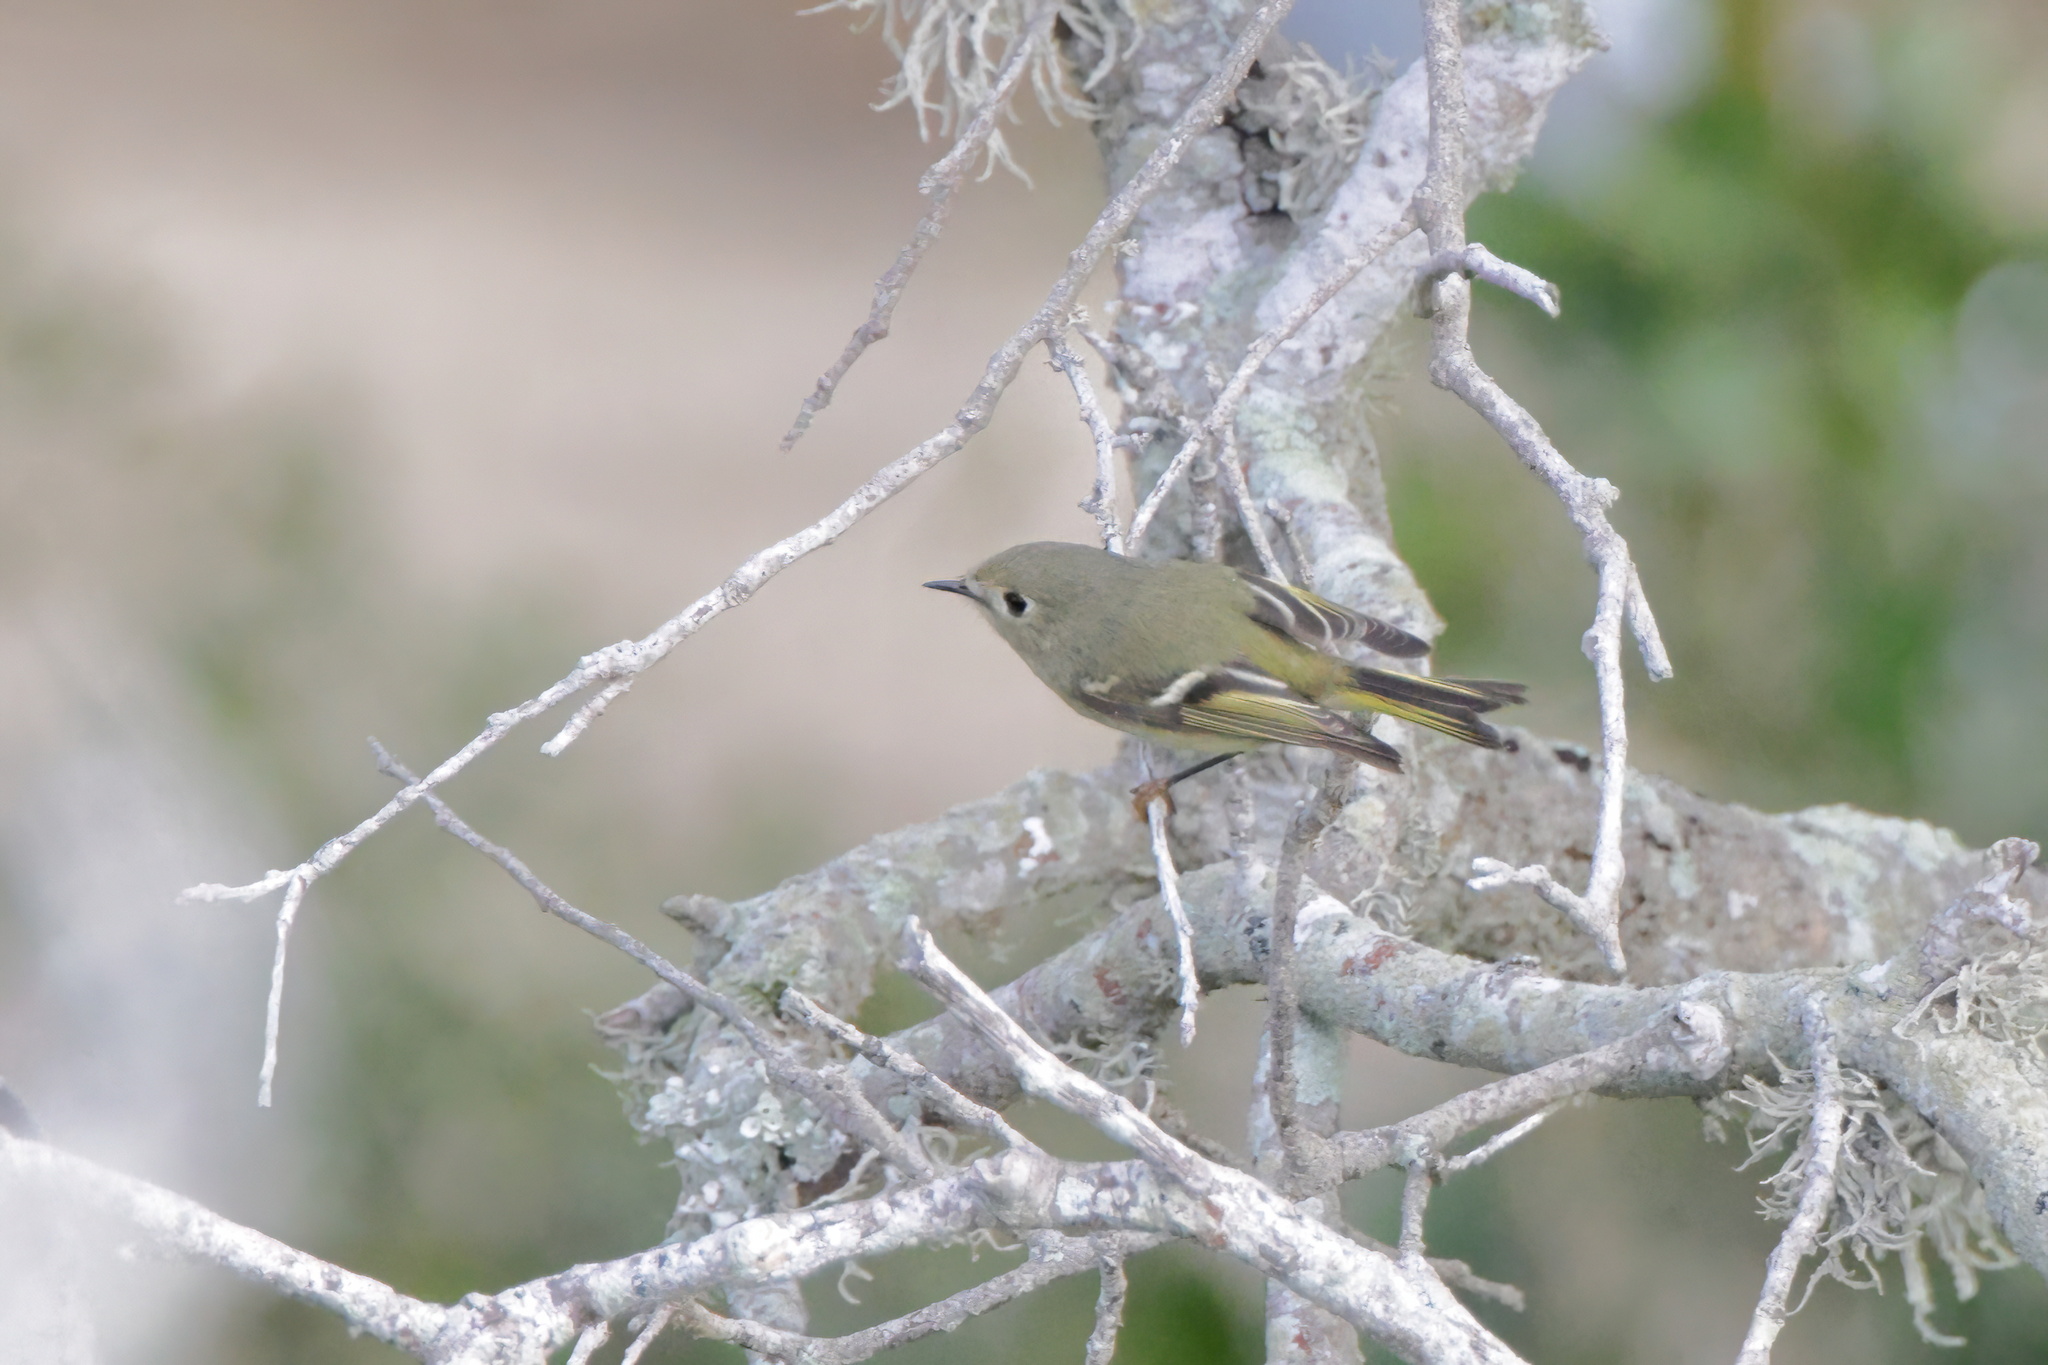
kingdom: Animalia
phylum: Chordata
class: Aves
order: Passeriformes
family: Regulidae
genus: Regulus
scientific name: Regulus calendula
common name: Ruby-crowned kinglet
